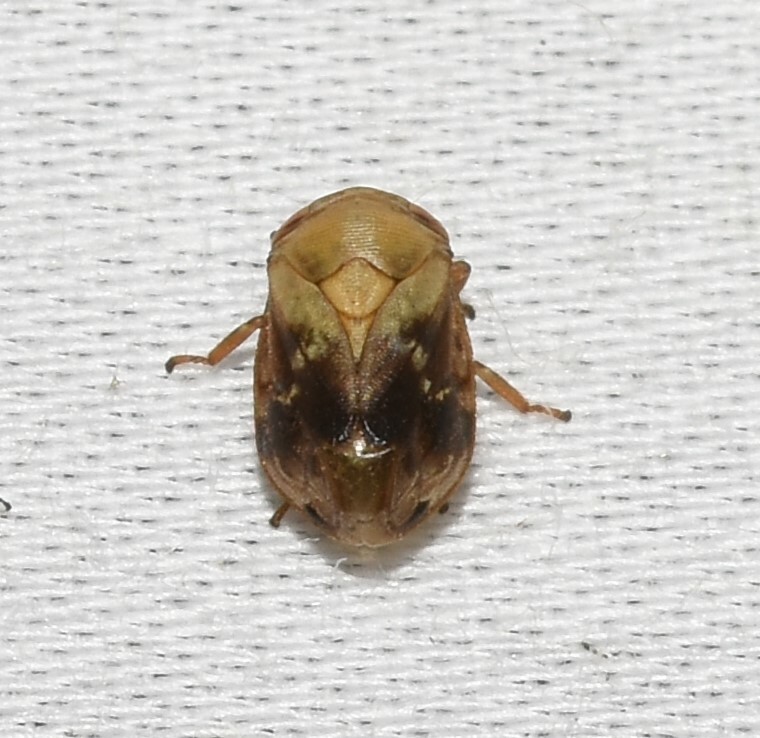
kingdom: Animalia
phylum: Arthropoda
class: Insecta
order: Hemiptera
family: Clastopteridae
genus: Clastoptera
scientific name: Clastoptera achatina
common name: Pecan spittlebug
